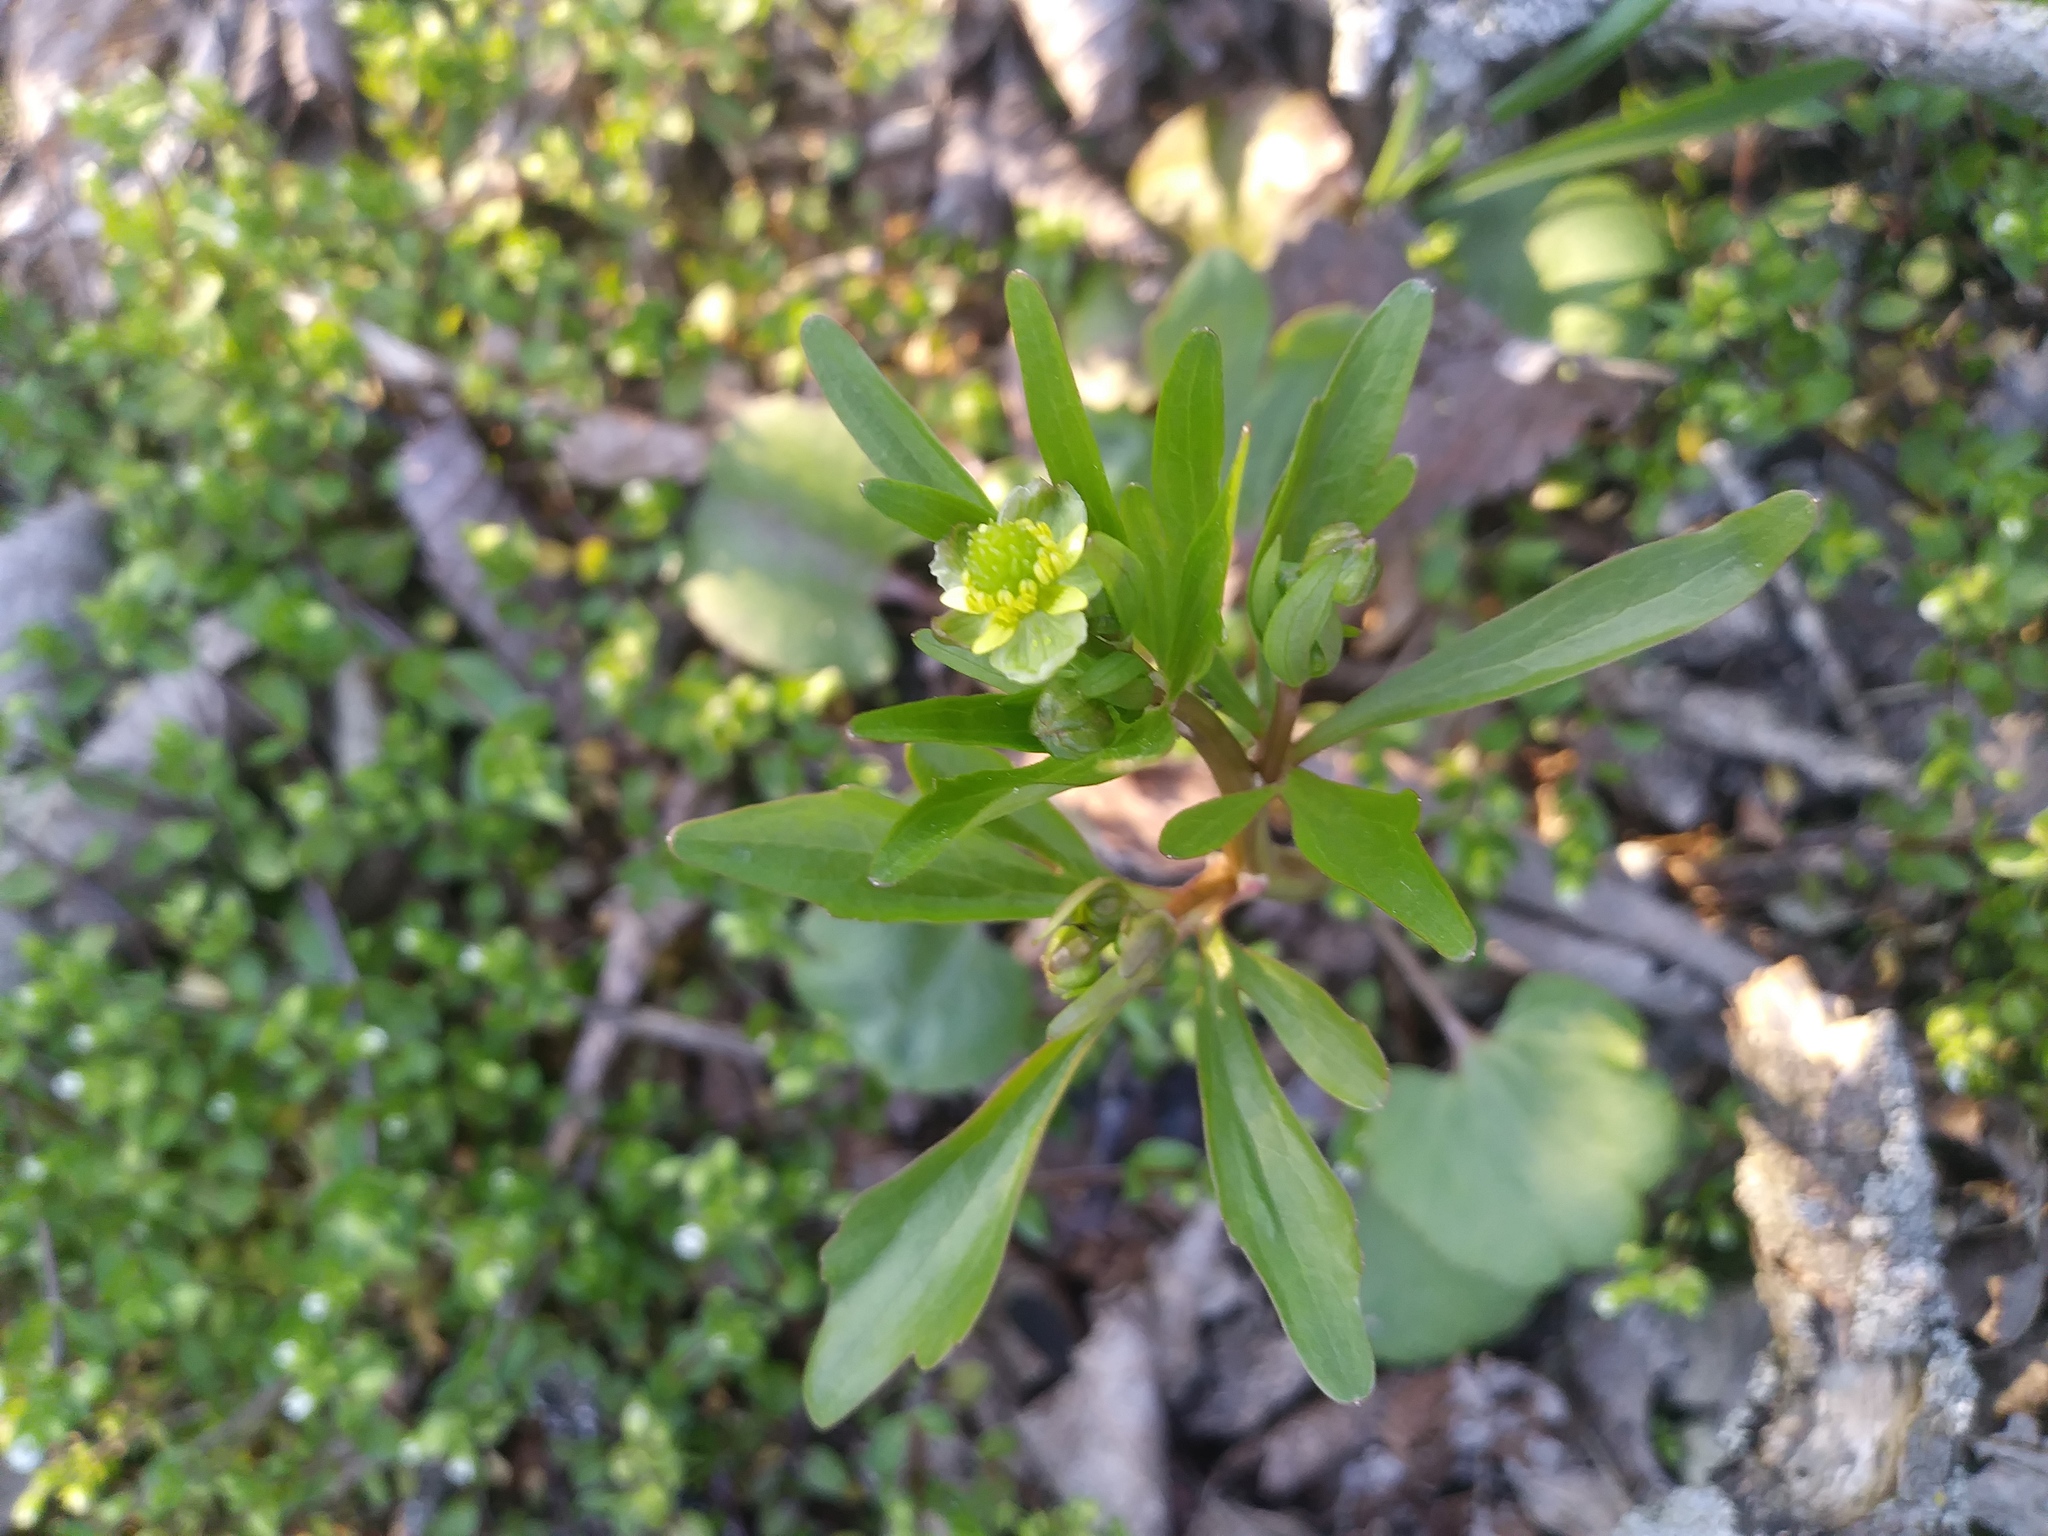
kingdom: Plantae
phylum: Tracheophyta
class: Magnoliopsida
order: Ranunculales
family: Ranunculaceae
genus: Ranunculus
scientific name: Ranunculus abortivus
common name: Early wood buttercup
